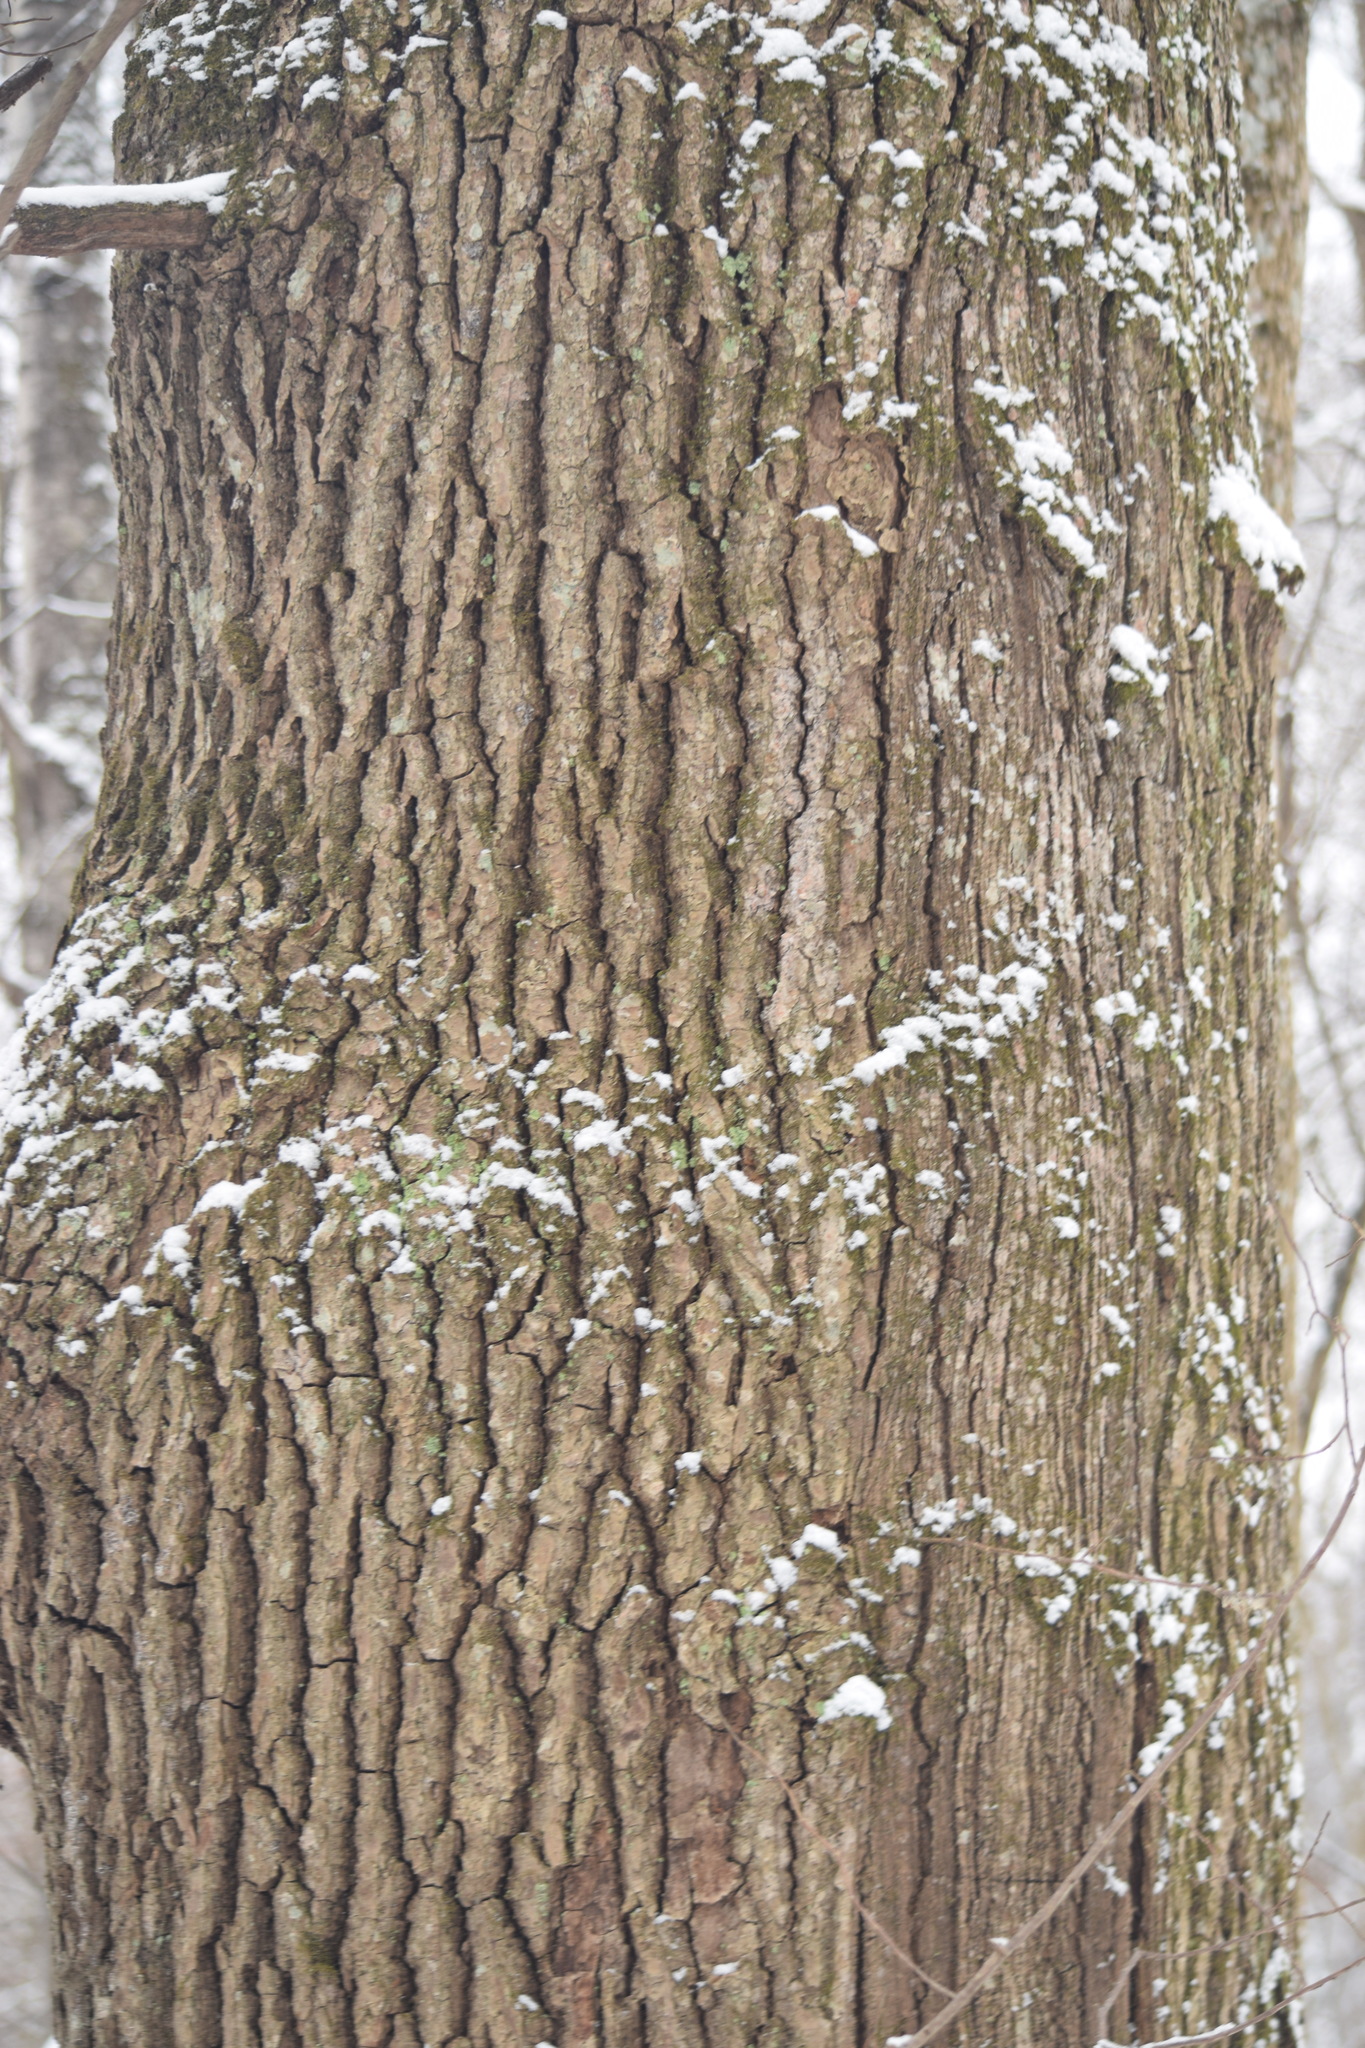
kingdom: Plantae
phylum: Tracheophyta
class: Magnoliopsida
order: Fagales
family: Fagaceae
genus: Quercus
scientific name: Quercus robur
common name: Pedunculate oak
